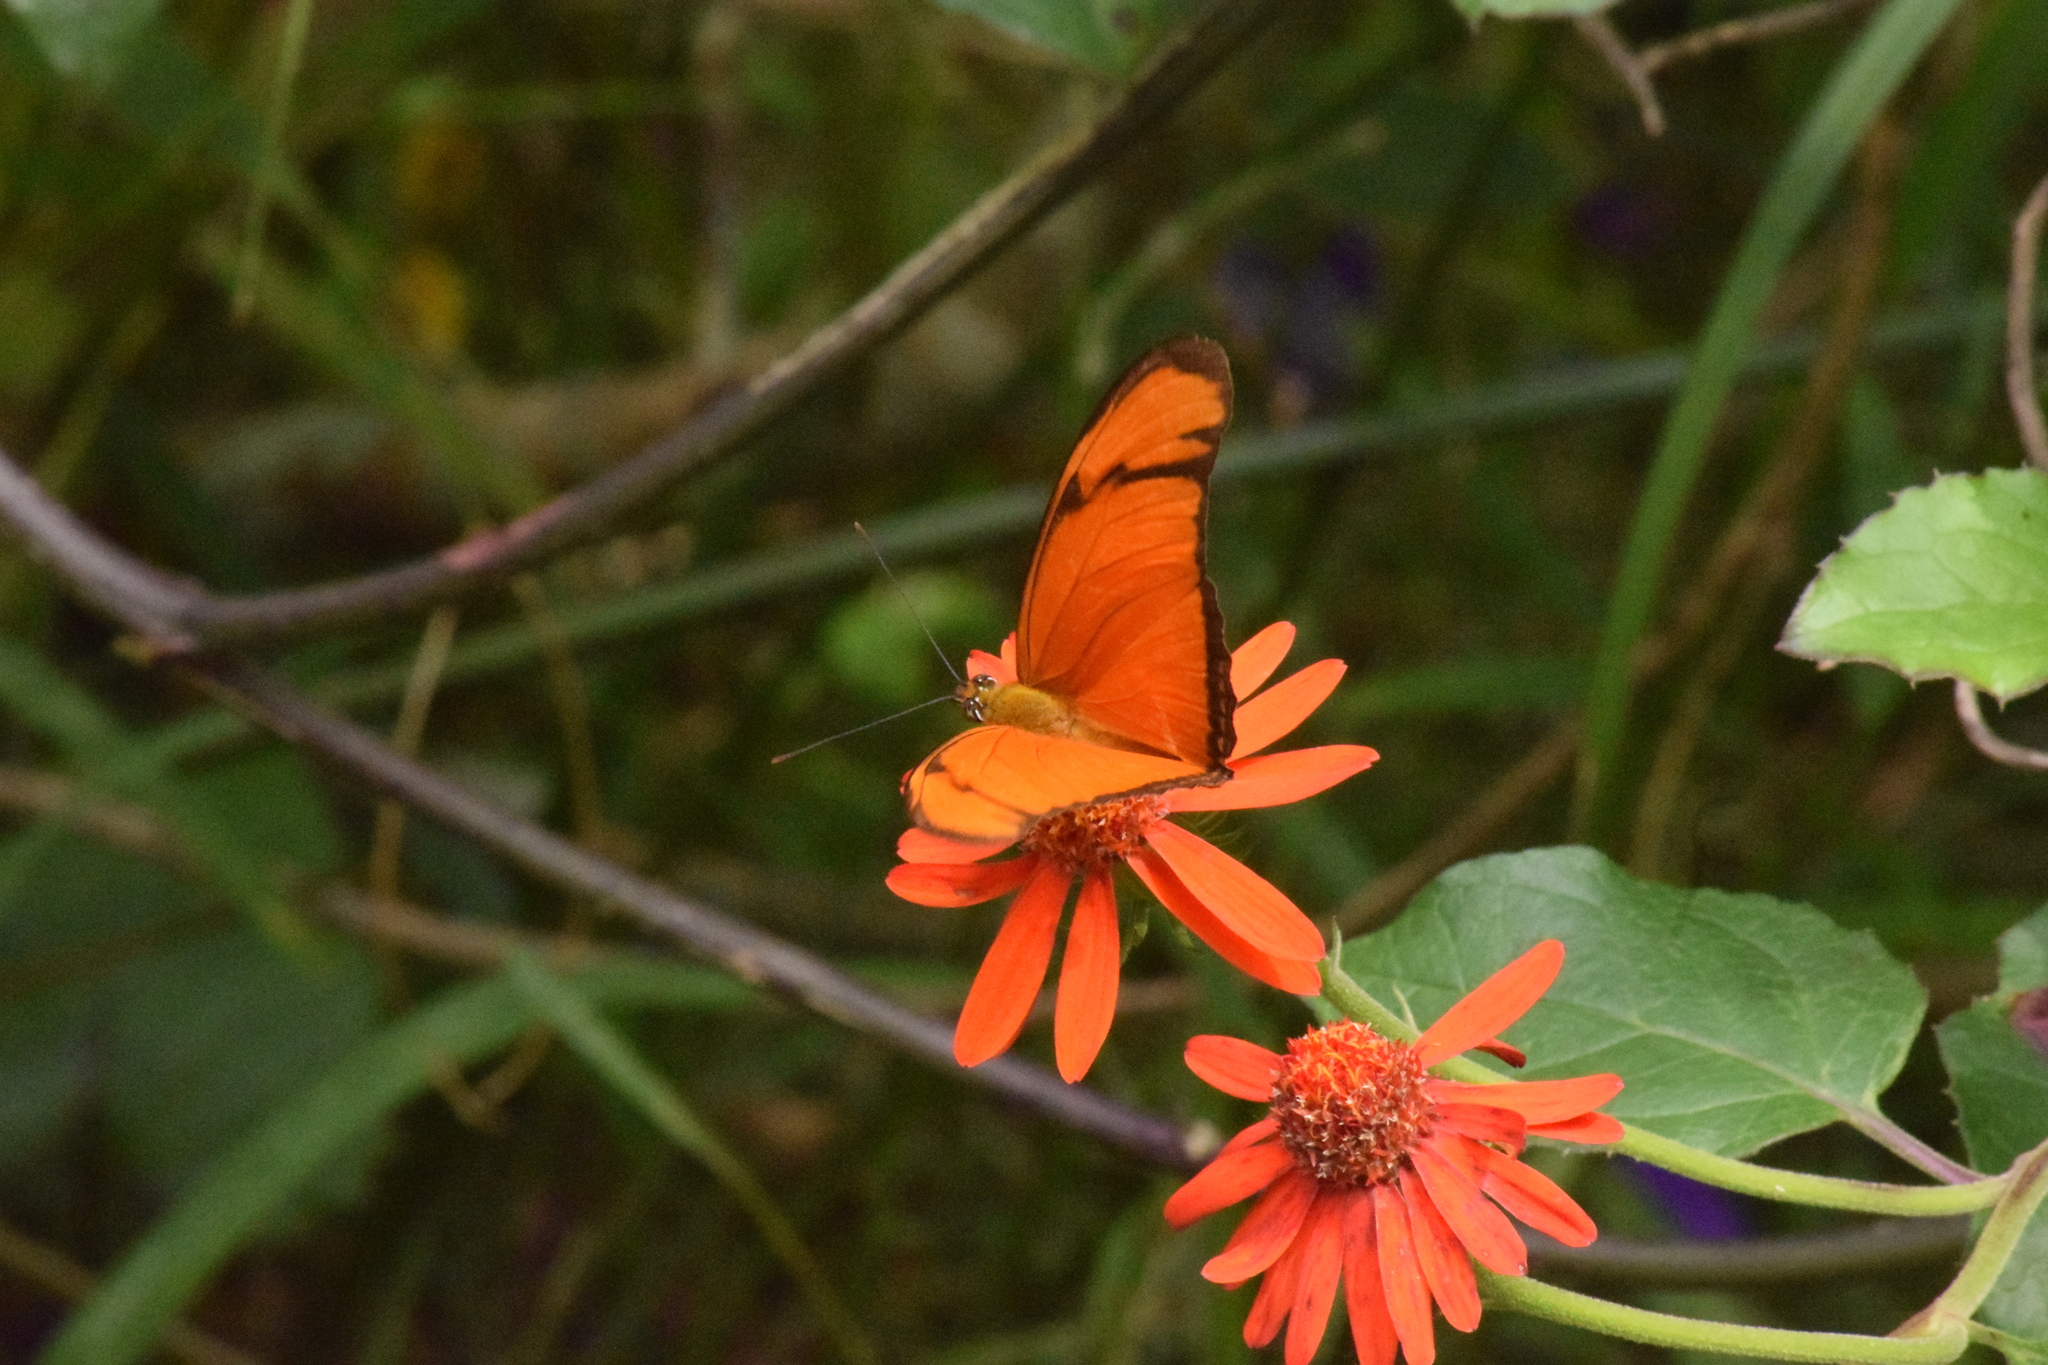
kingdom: Animalia
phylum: Arthropoda
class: Insecta
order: Lepidoptera
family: Nymphalidae
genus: Dryas
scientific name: Dryas iulia
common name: Flambeau
